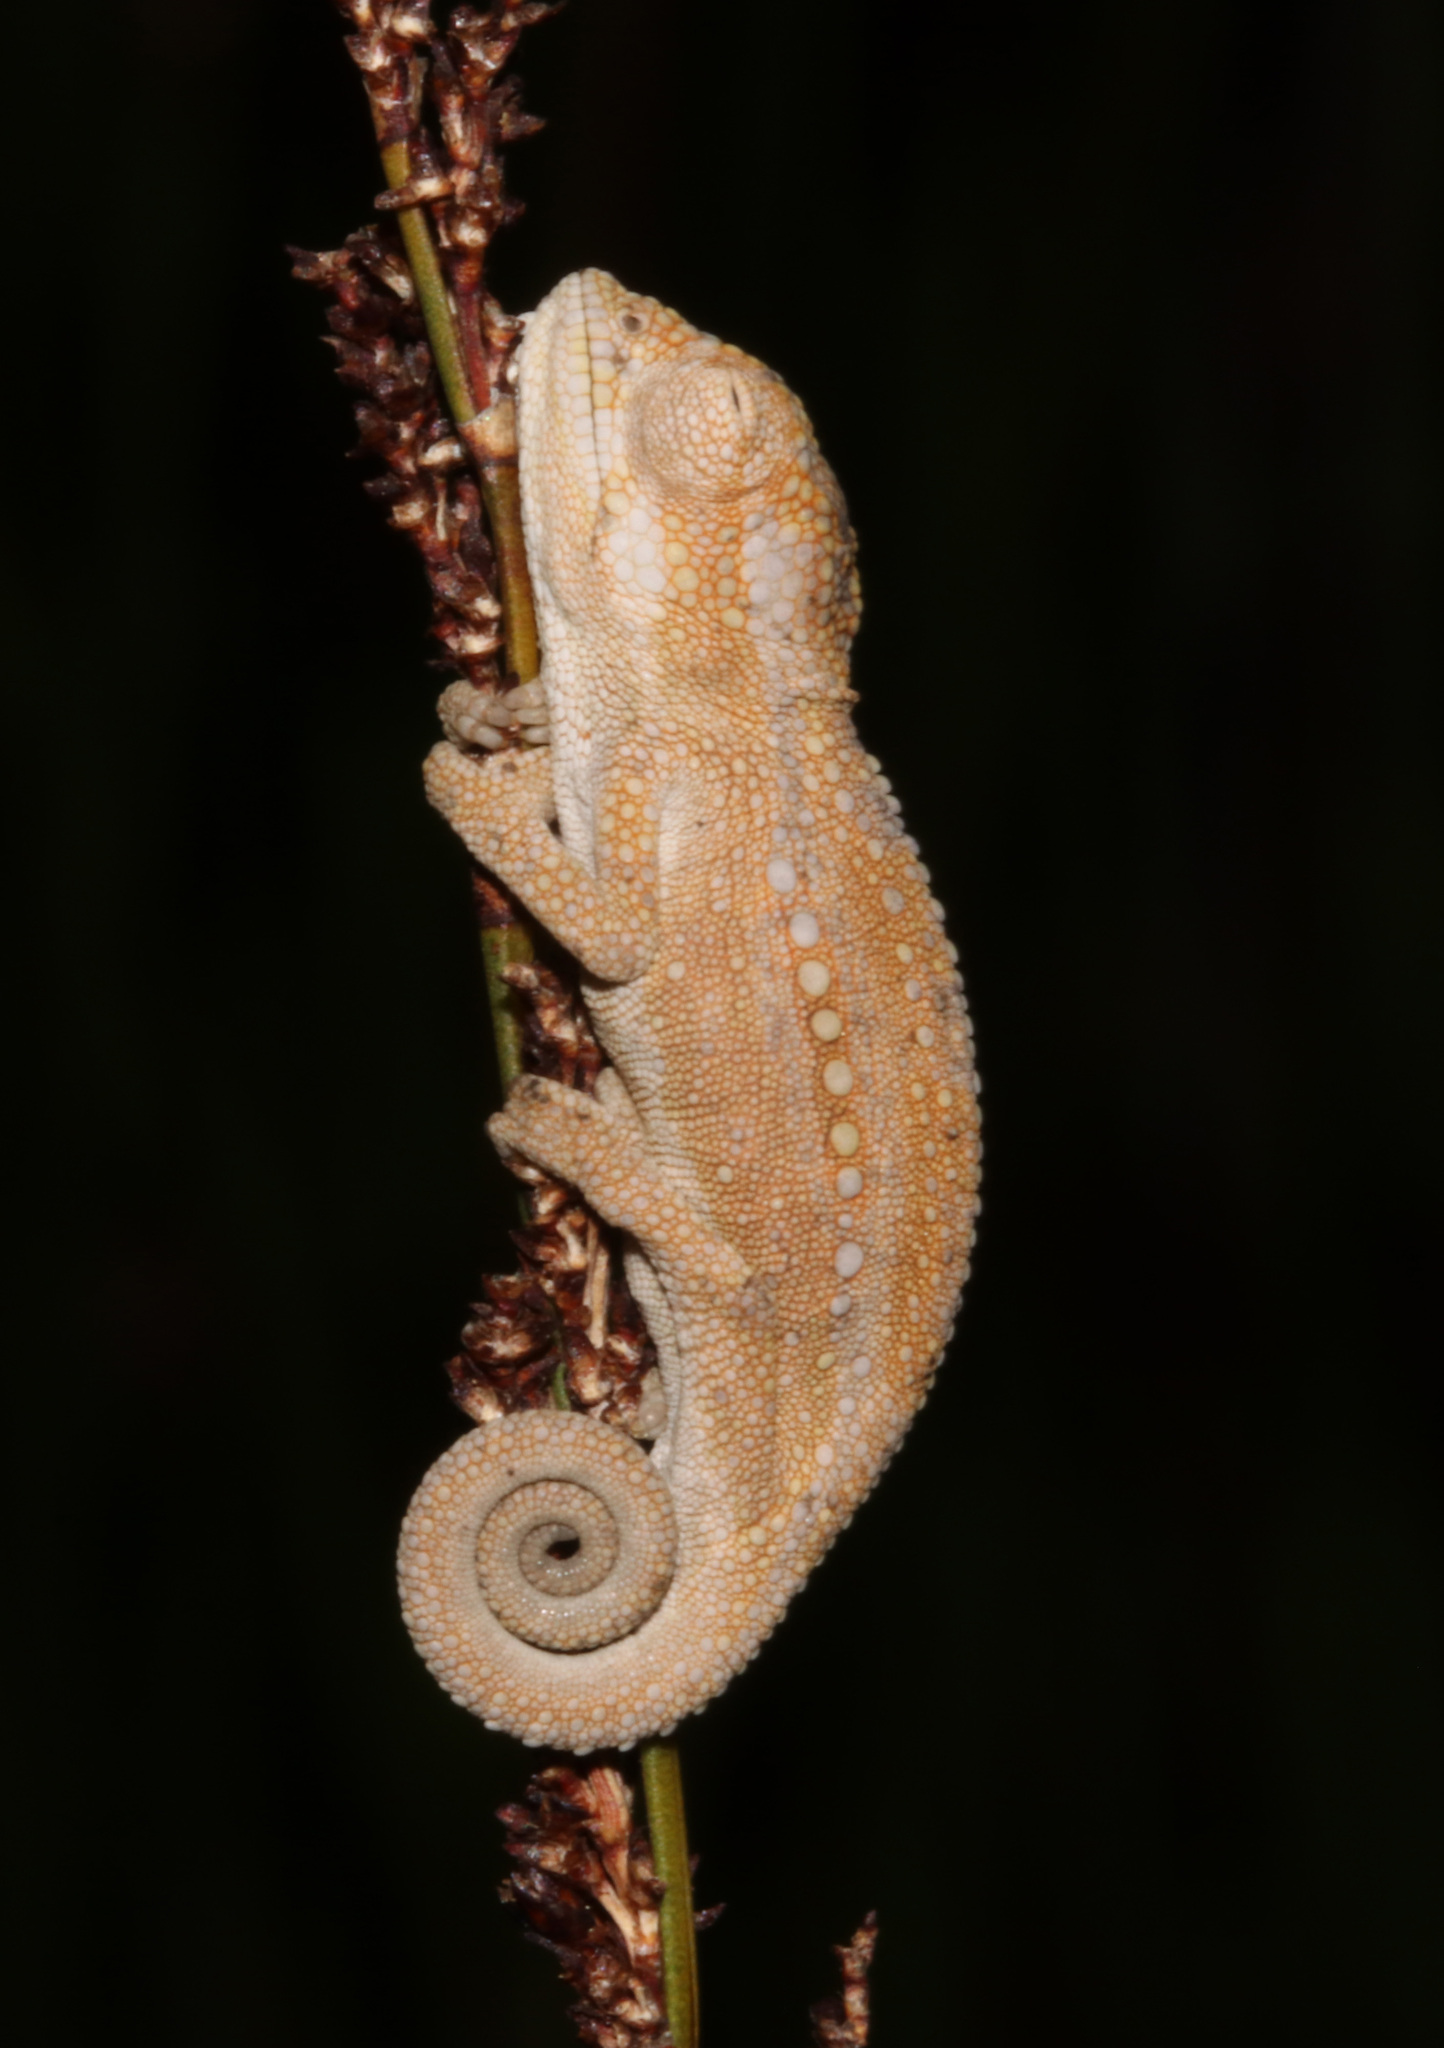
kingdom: Animalia
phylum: Chordata
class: Squamata
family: Chamaeleonidae
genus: Bradypodion
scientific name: Bradypodion pumilum
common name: Cape dwarf chameleon
